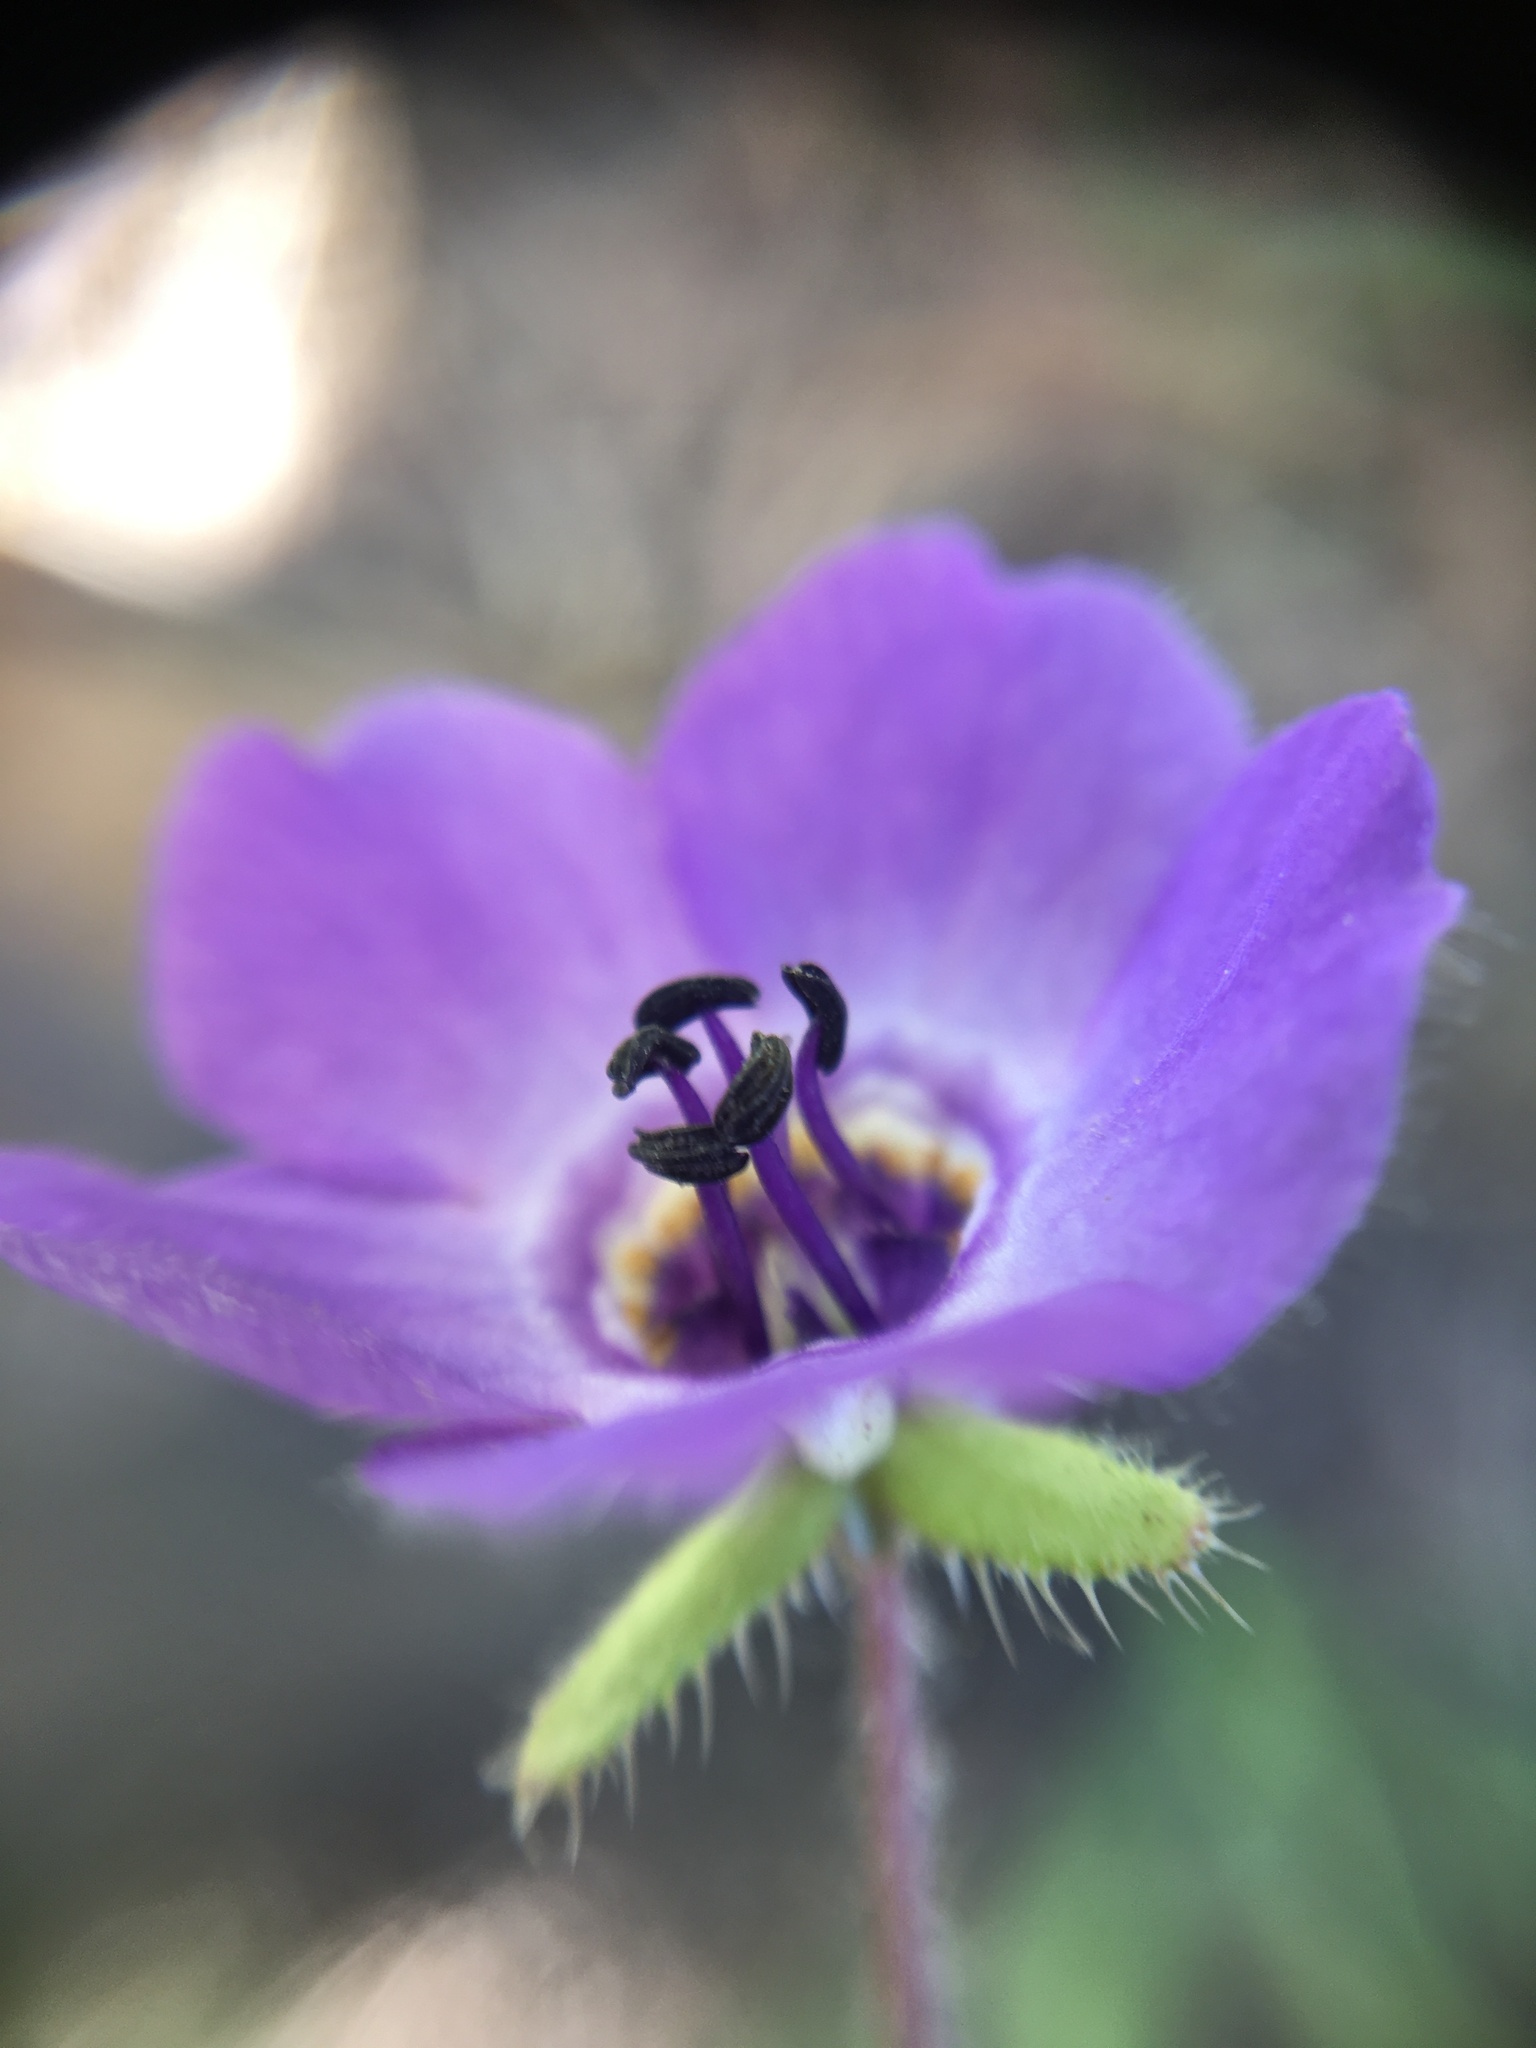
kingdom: Plantae
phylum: Tracheophyta
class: Magnoliopsida
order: Boraginales
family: Hydrophyllaceae
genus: Pholistoma
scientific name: Pholistoma auritum
